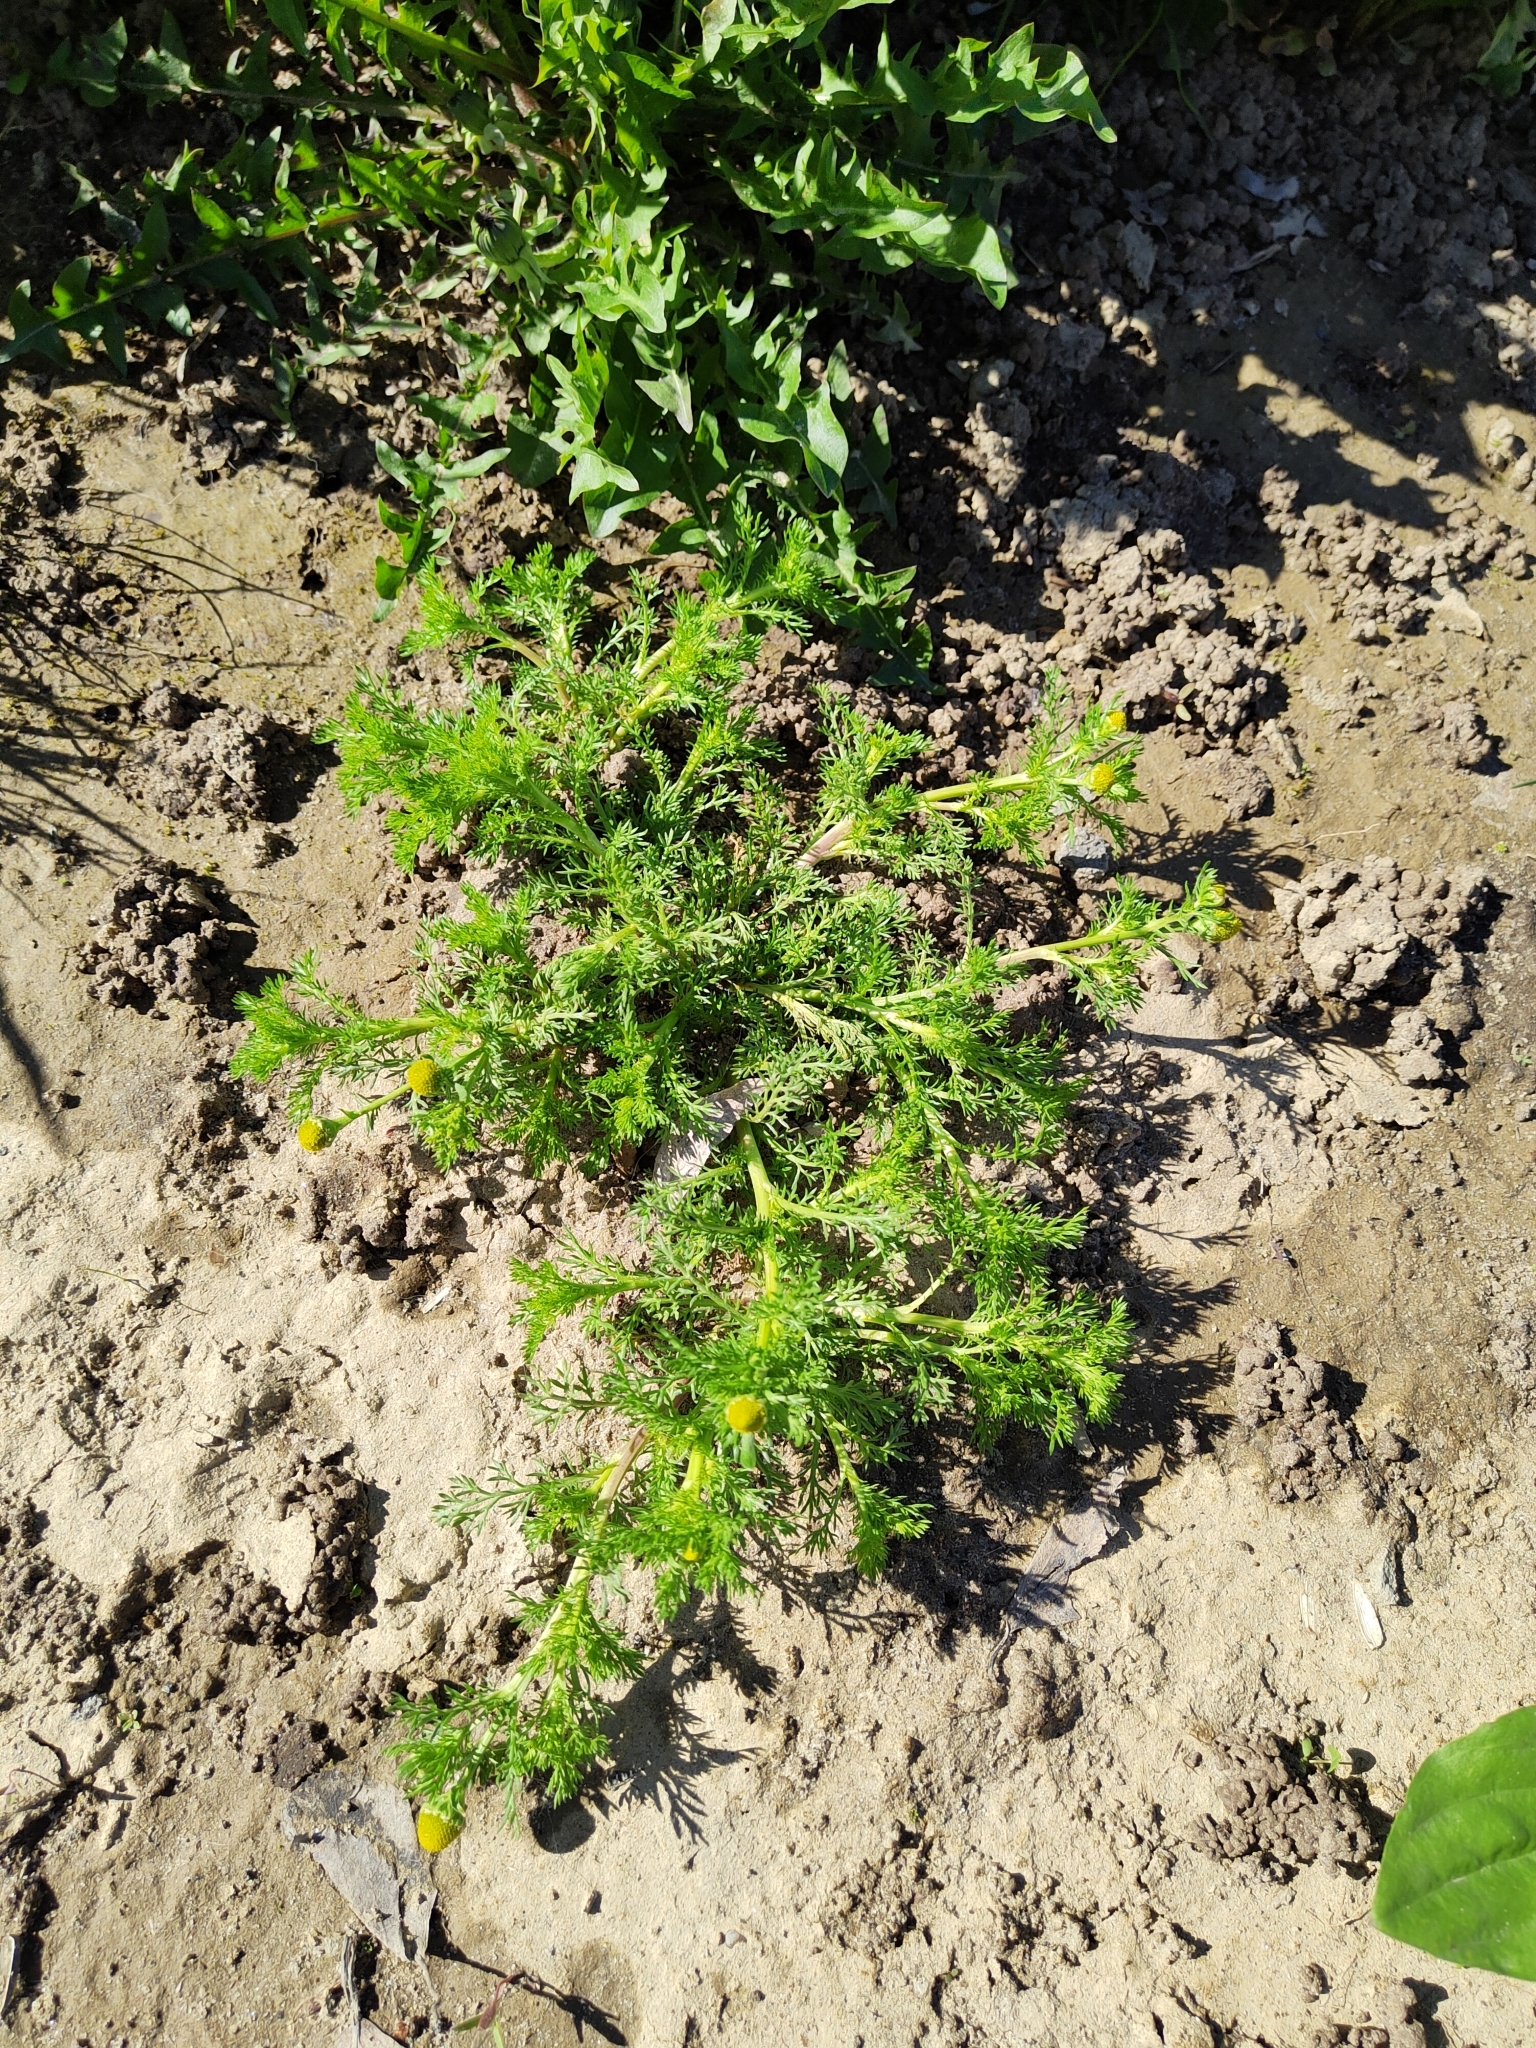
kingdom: Plantae
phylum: Tracheophyta
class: Magnoliopsida
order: Asterales
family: Asteraceae
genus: Matricaria
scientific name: Matricaria discoidea
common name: Disc mayweed
